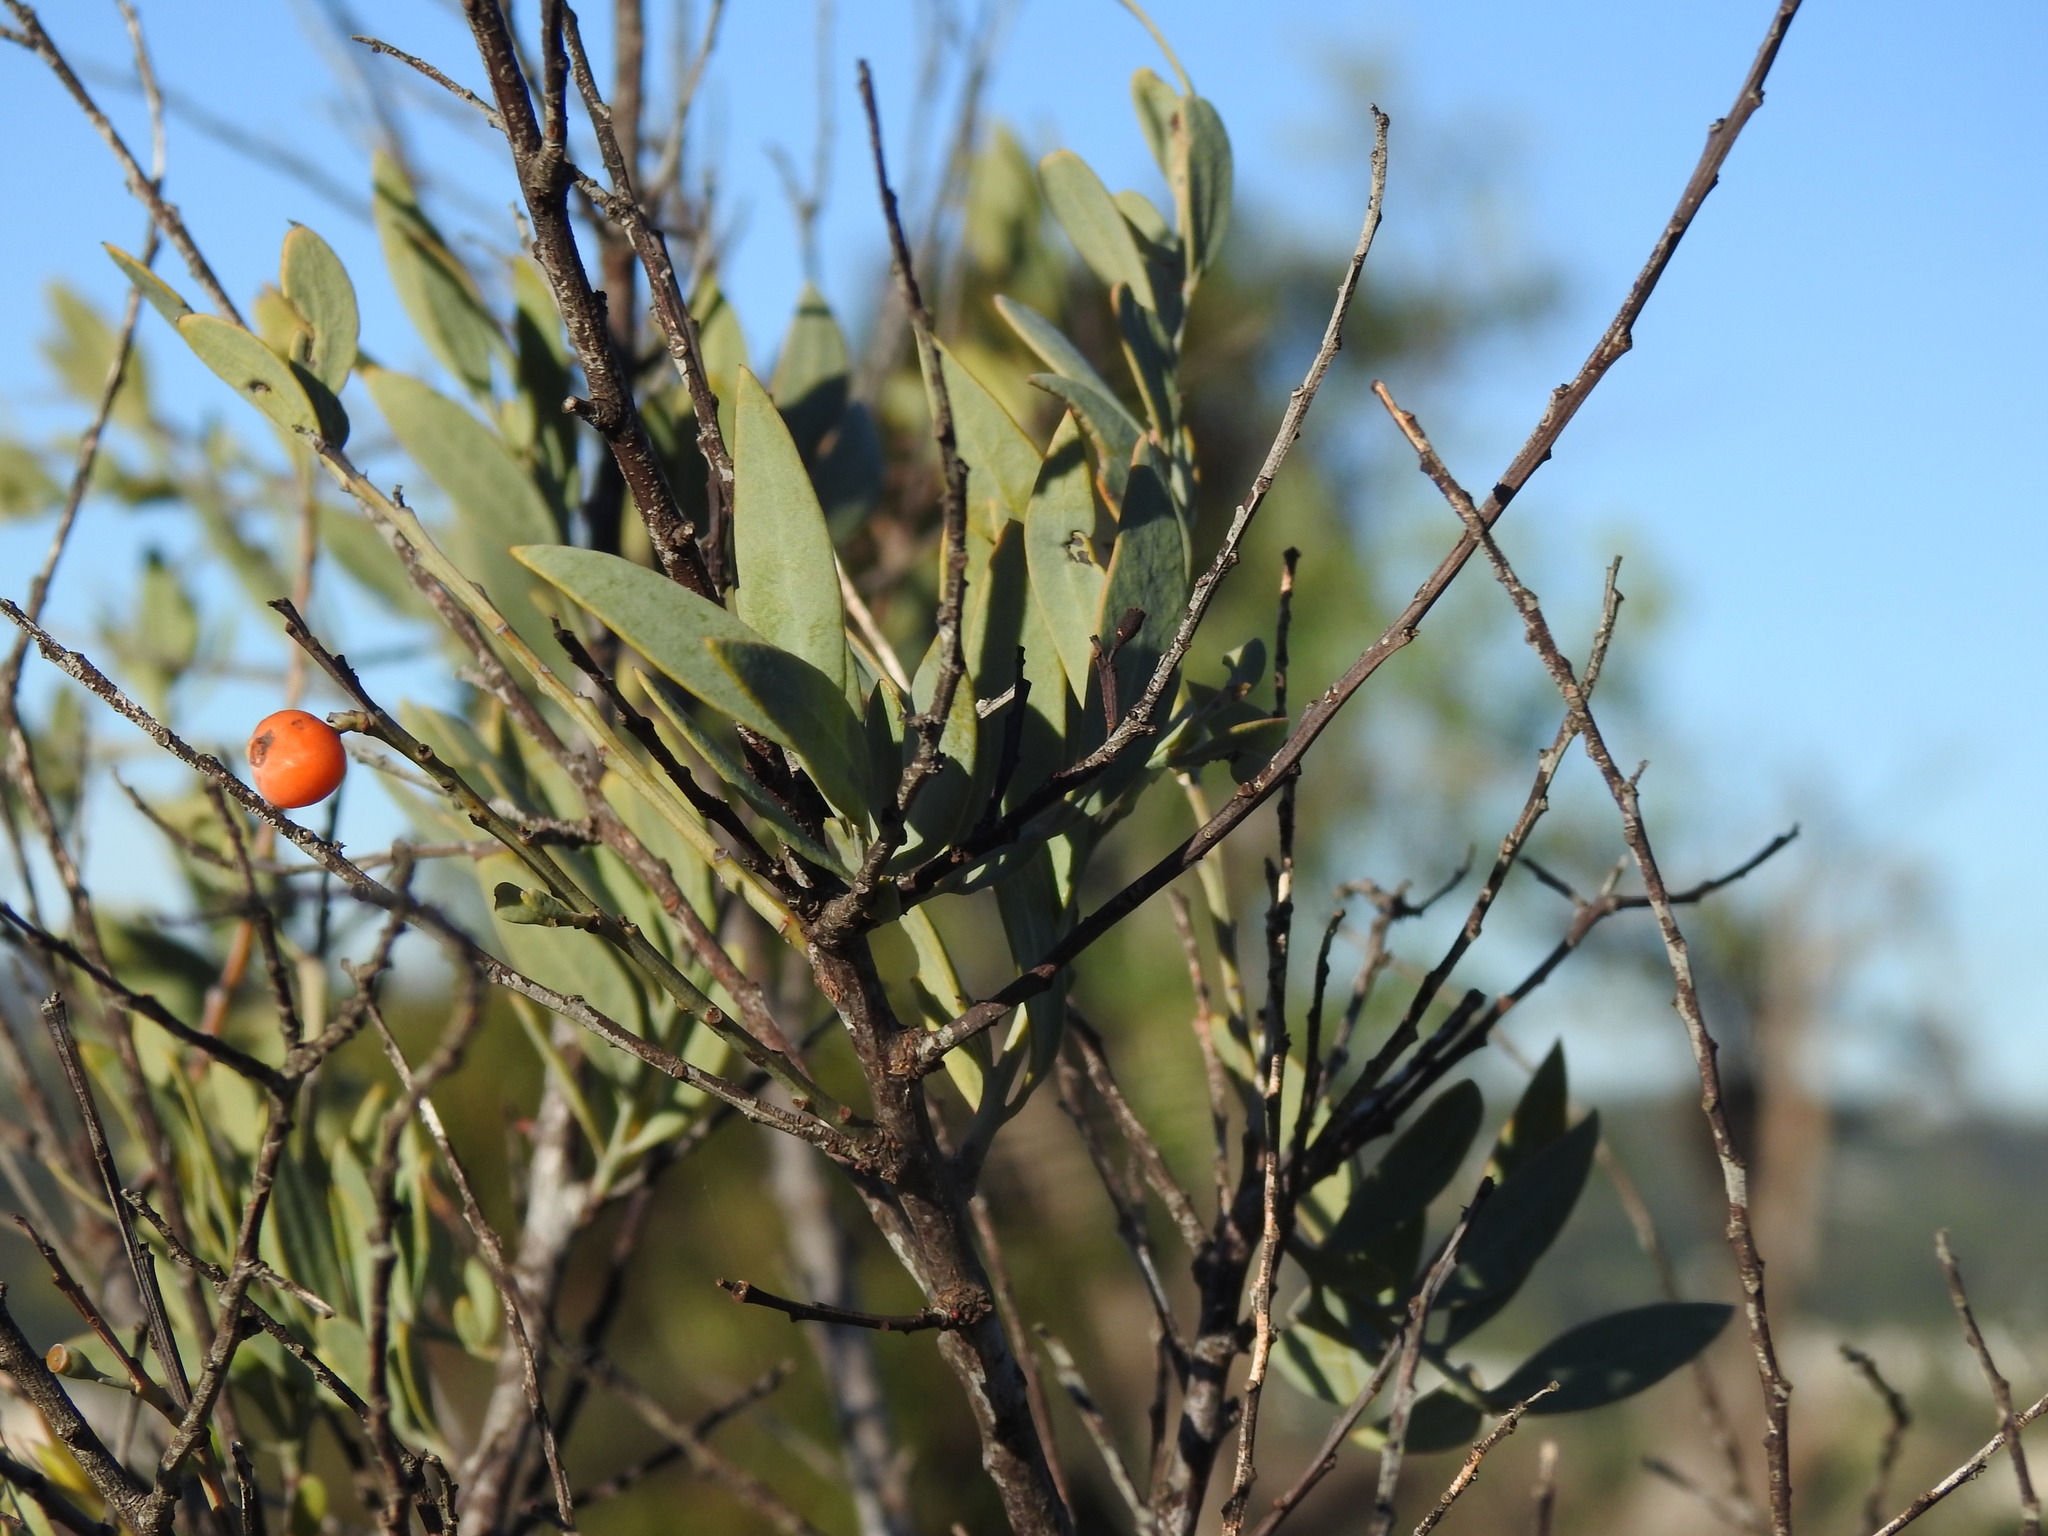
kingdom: Plantae
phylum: Tracheophyta
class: Magnoliopsida
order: Santalales
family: Santalaceae
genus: Osyris
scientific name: Osyris lanceolata
